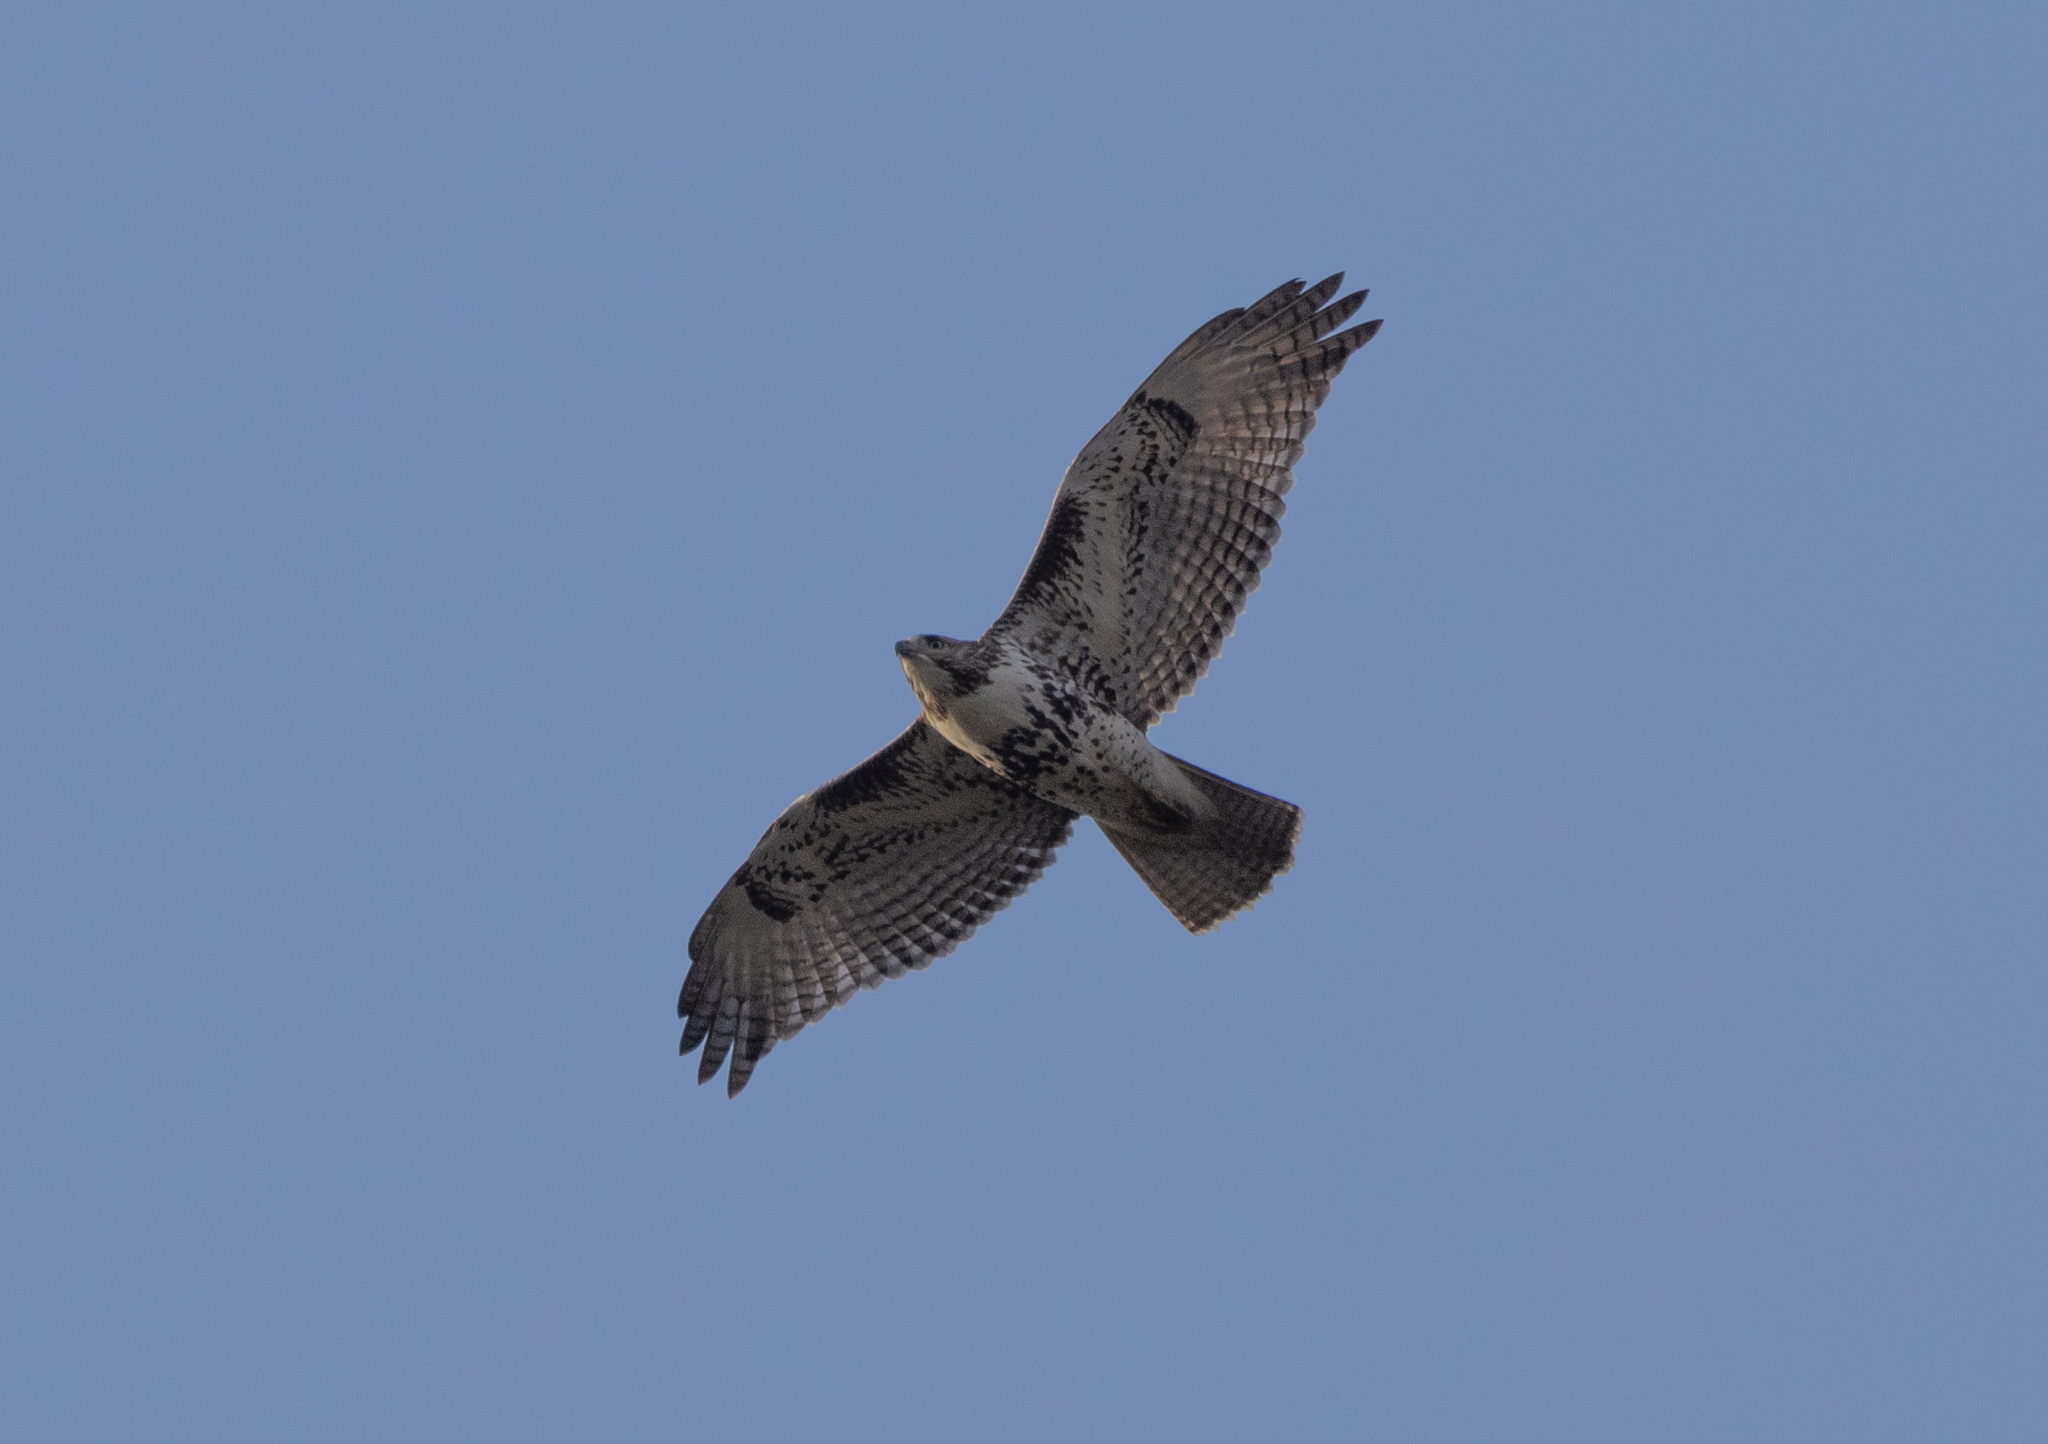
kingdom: Animalia
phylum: Chordata
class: Aves
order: Accipitriformes
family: Accipitridae
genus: Buteo
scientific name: Buteo jamaicensis
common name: Red-tailed hawk
